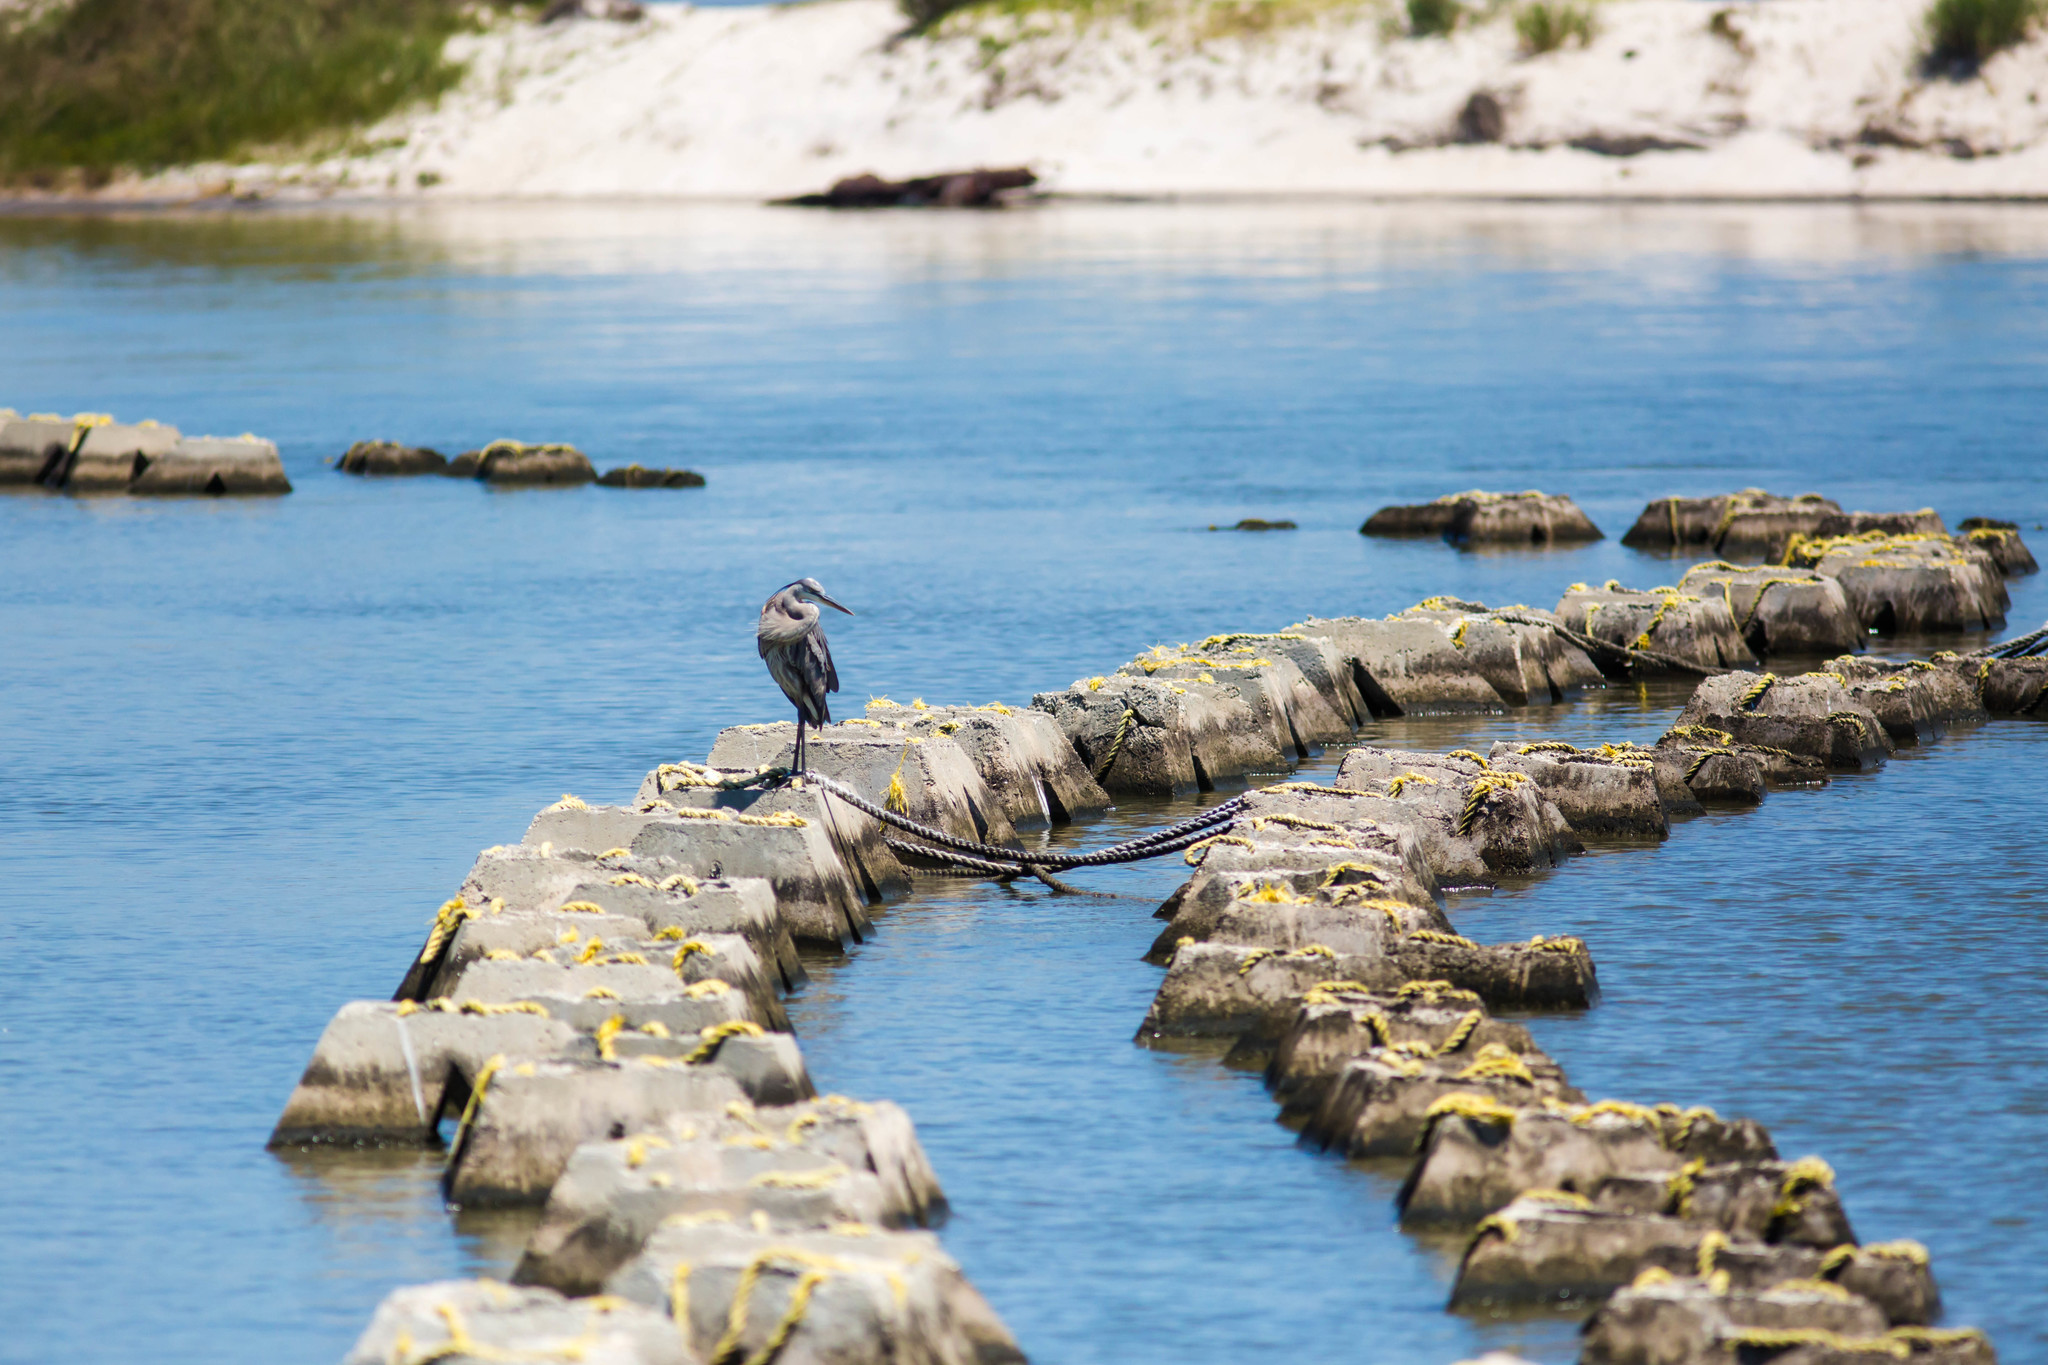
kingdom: Animalia
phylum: Chordata
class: Aves
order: Pelecaniformes
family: Ardeidae
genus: Ardea
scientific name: Ardea herodias
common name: Great blue heron
